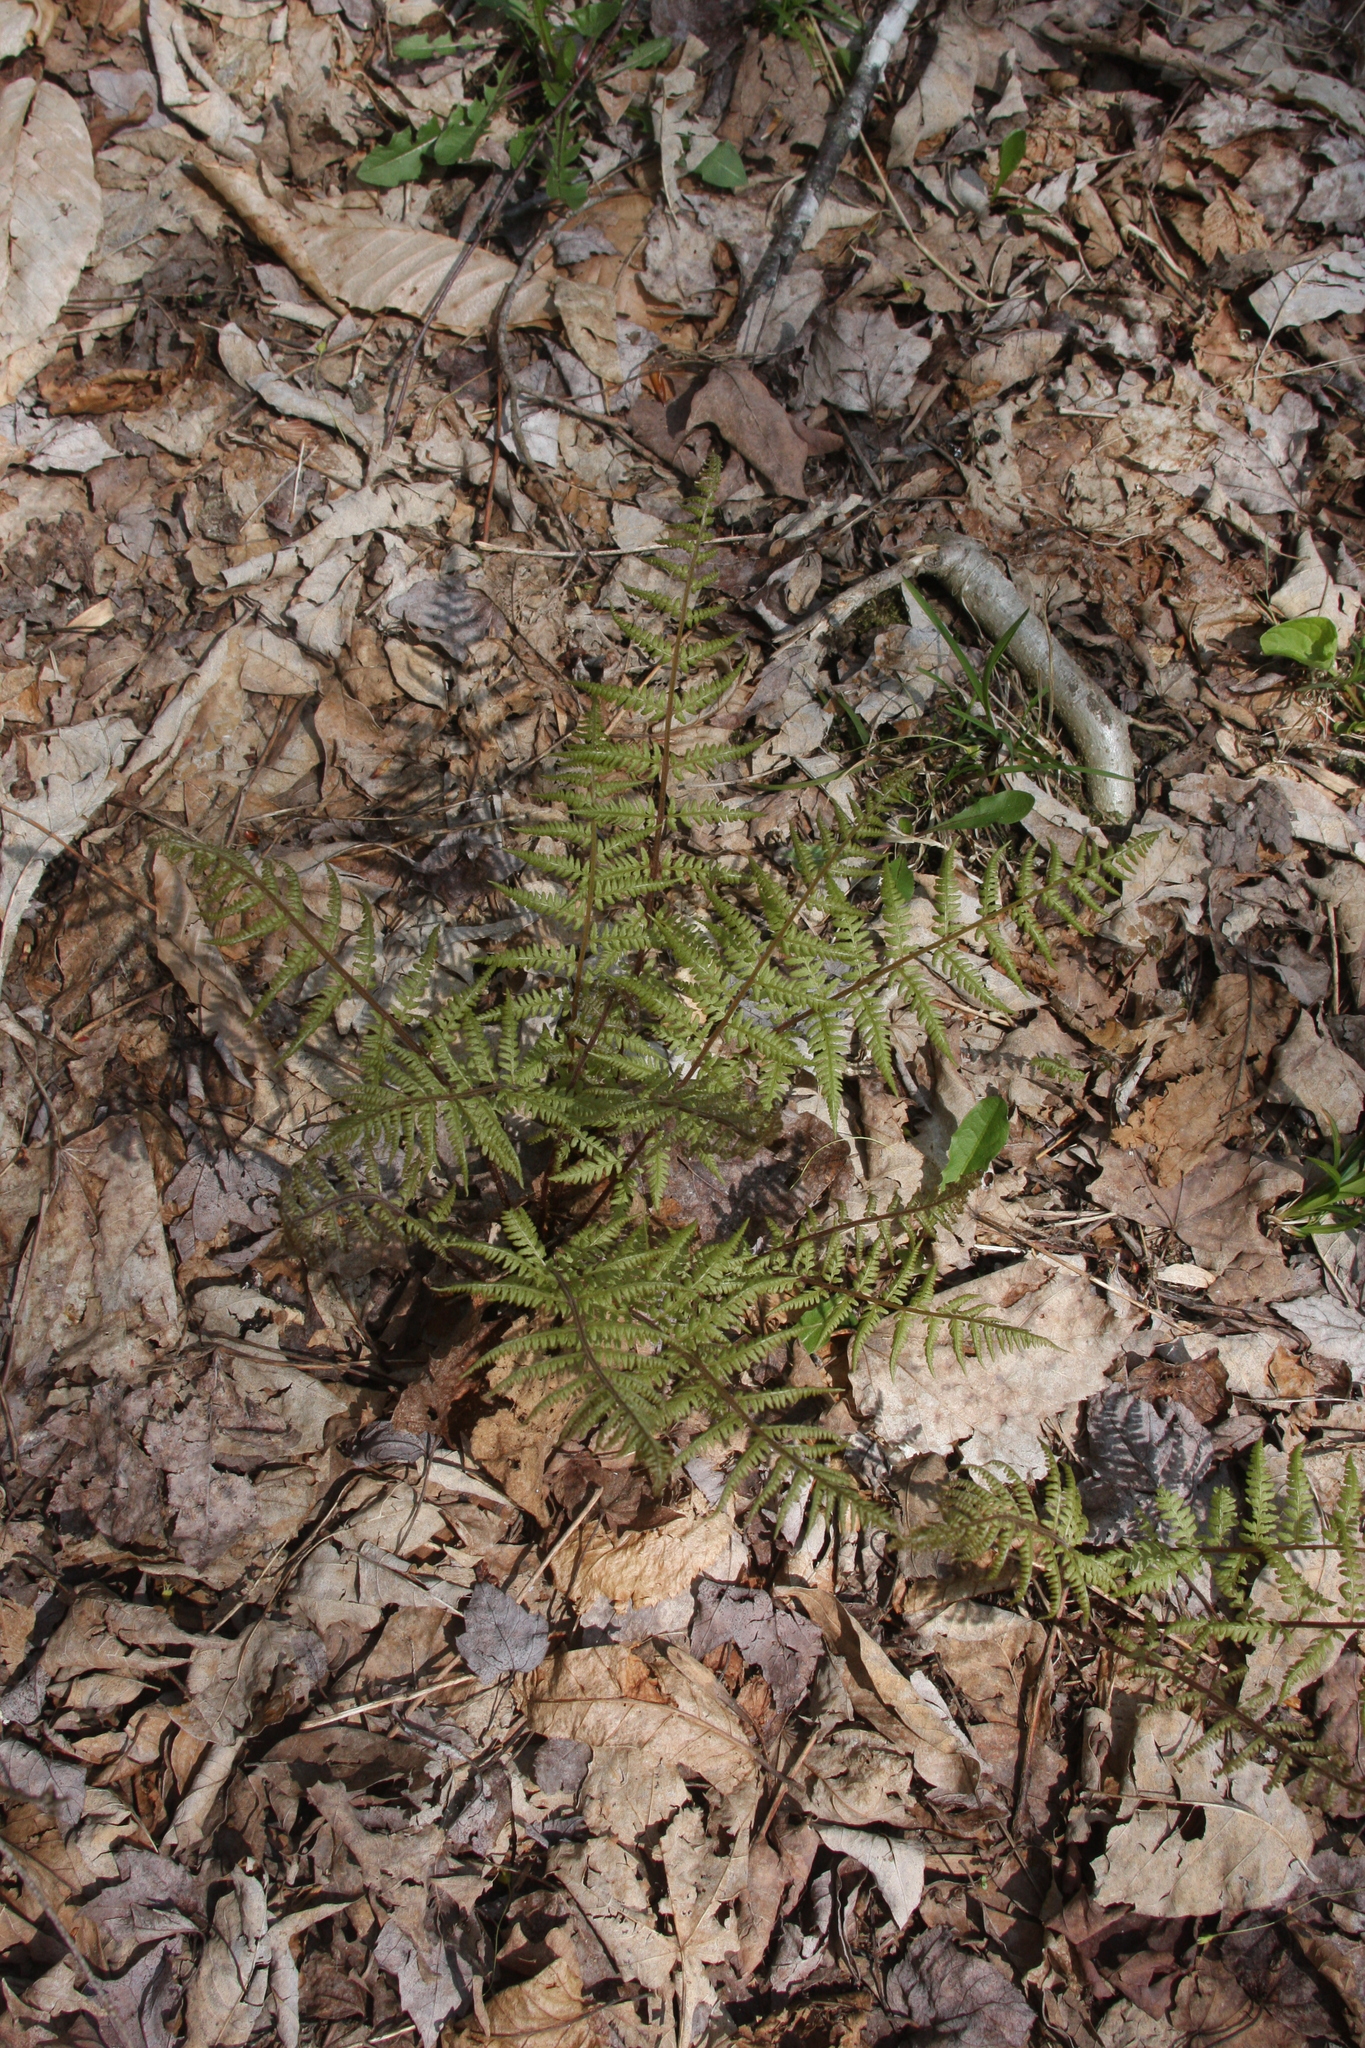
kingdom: Plantae
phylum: Tracheophyta
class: Polypodiopsida
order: Polypodiales
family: Athyriaceae
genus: Athyrium
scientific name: Athyrium angustum
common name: Northern lady fern
